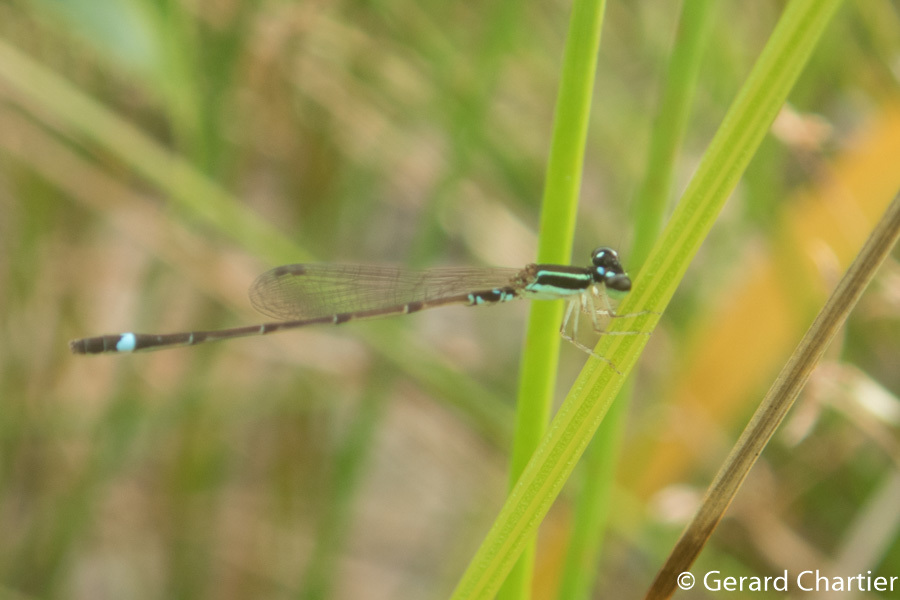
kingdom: Animalia
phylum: Arthropoda
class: Insecta
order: Odonata
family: Coenagrionidae
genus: Mortonagrion
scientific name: Mortonagrion falcatum
